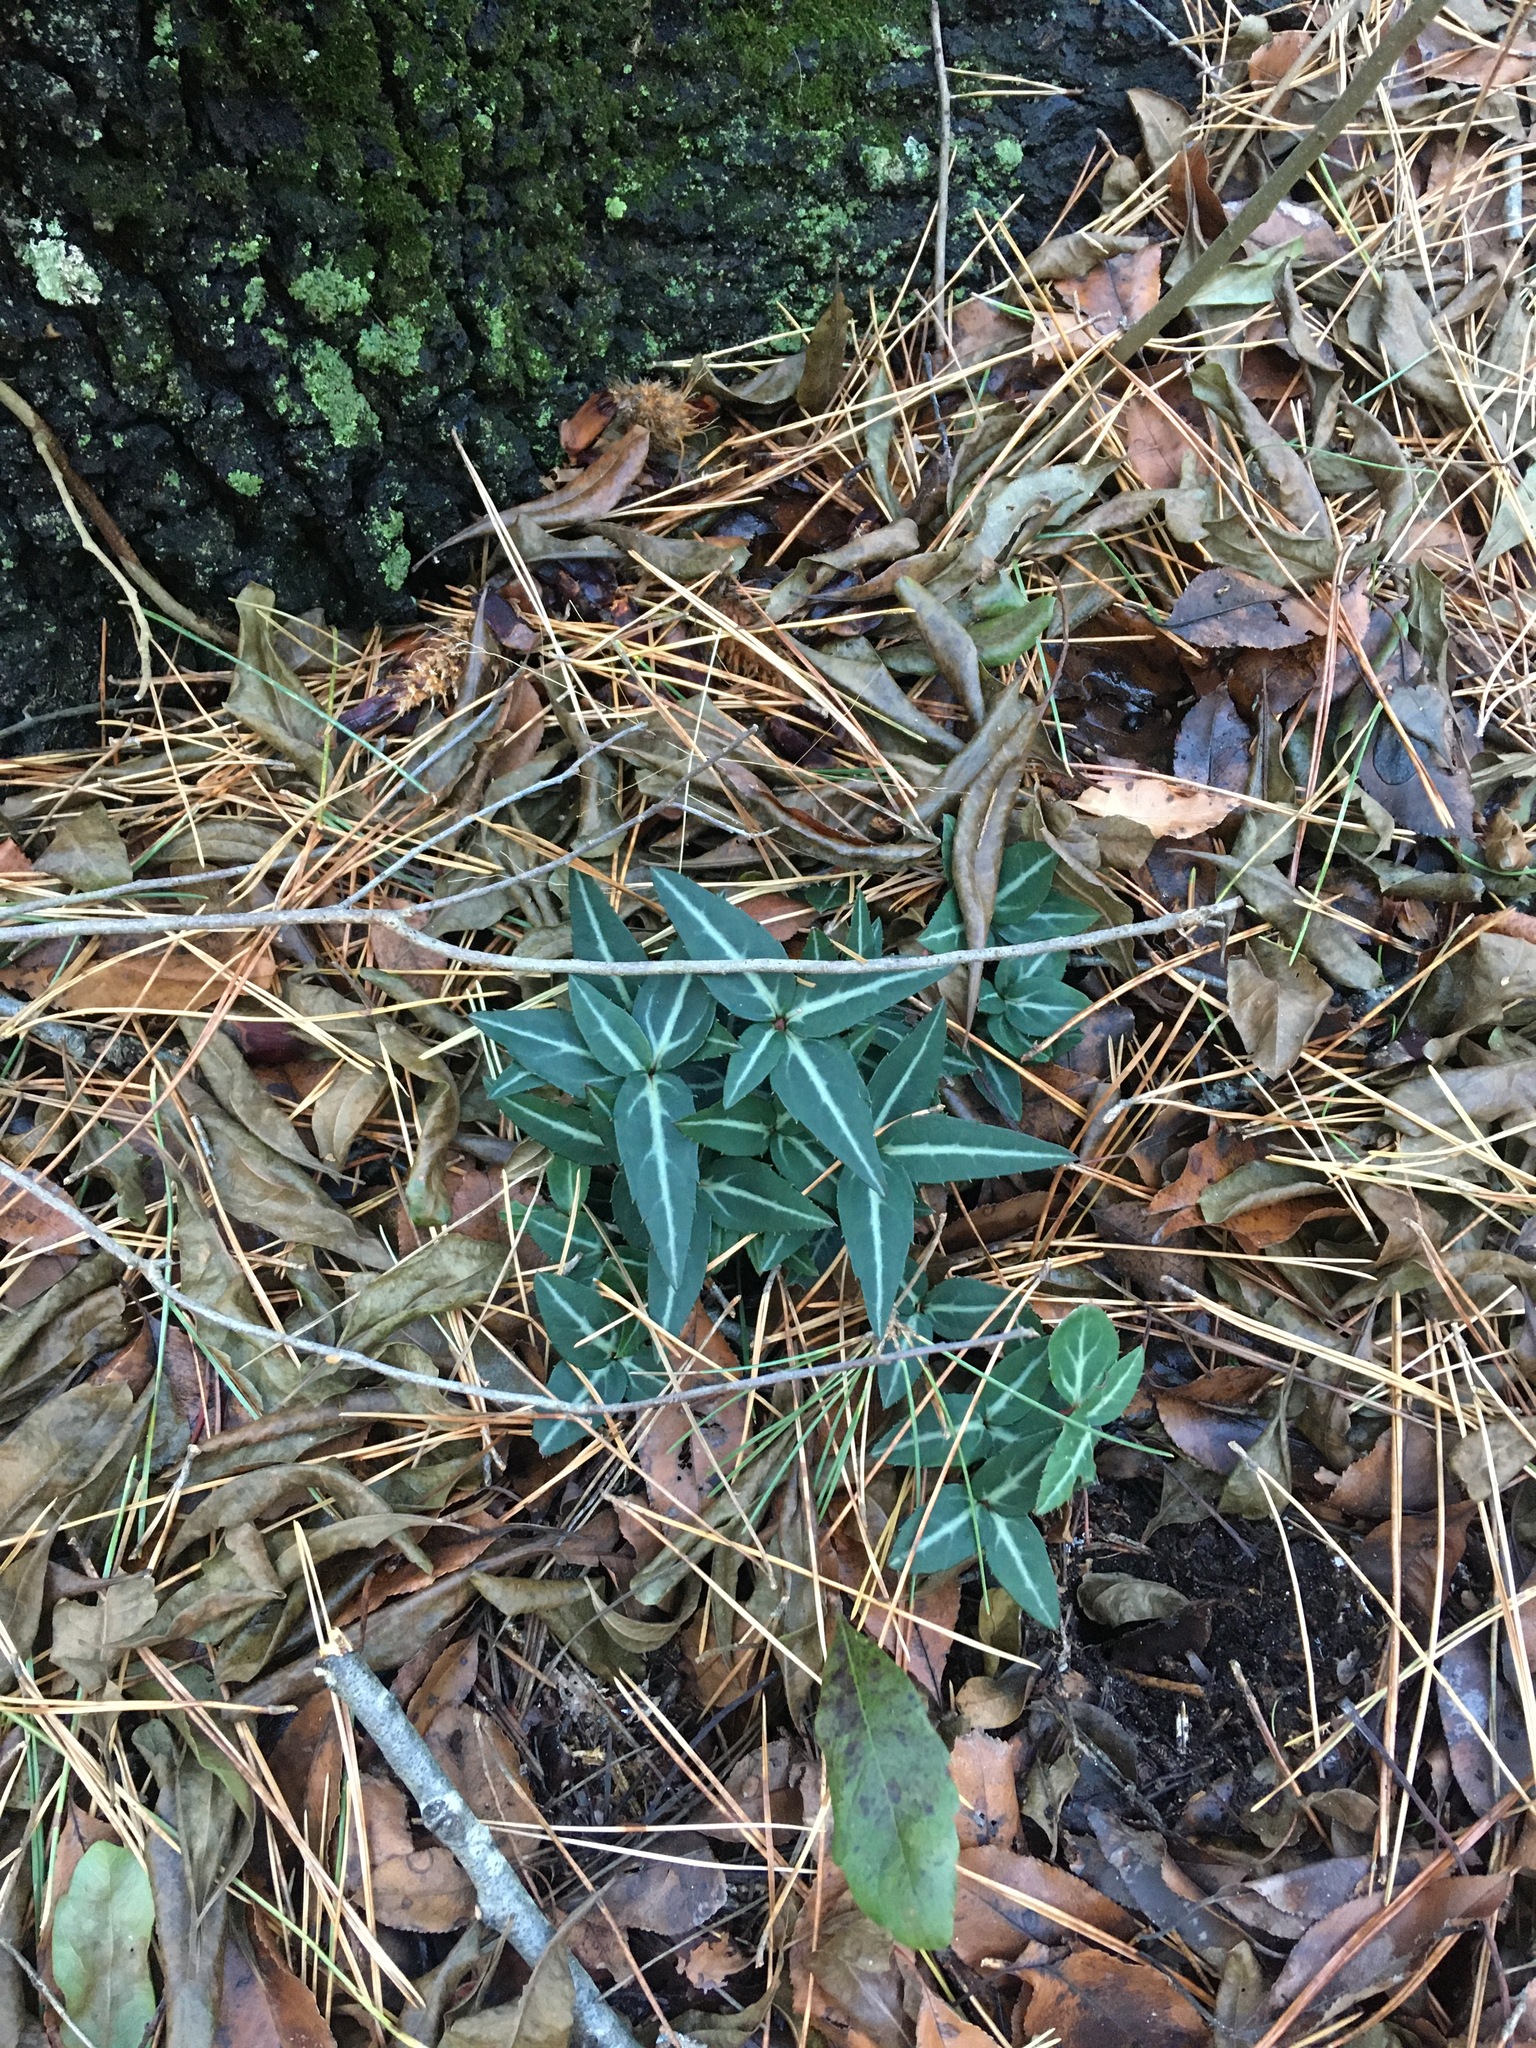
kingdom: Plantae
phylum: Tracheophyta
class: Magnoliopsida
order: Ericales
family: Ericaceae
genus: Chimaphila
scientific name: Chimaphila maculata
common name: Spotted pipsissewa
